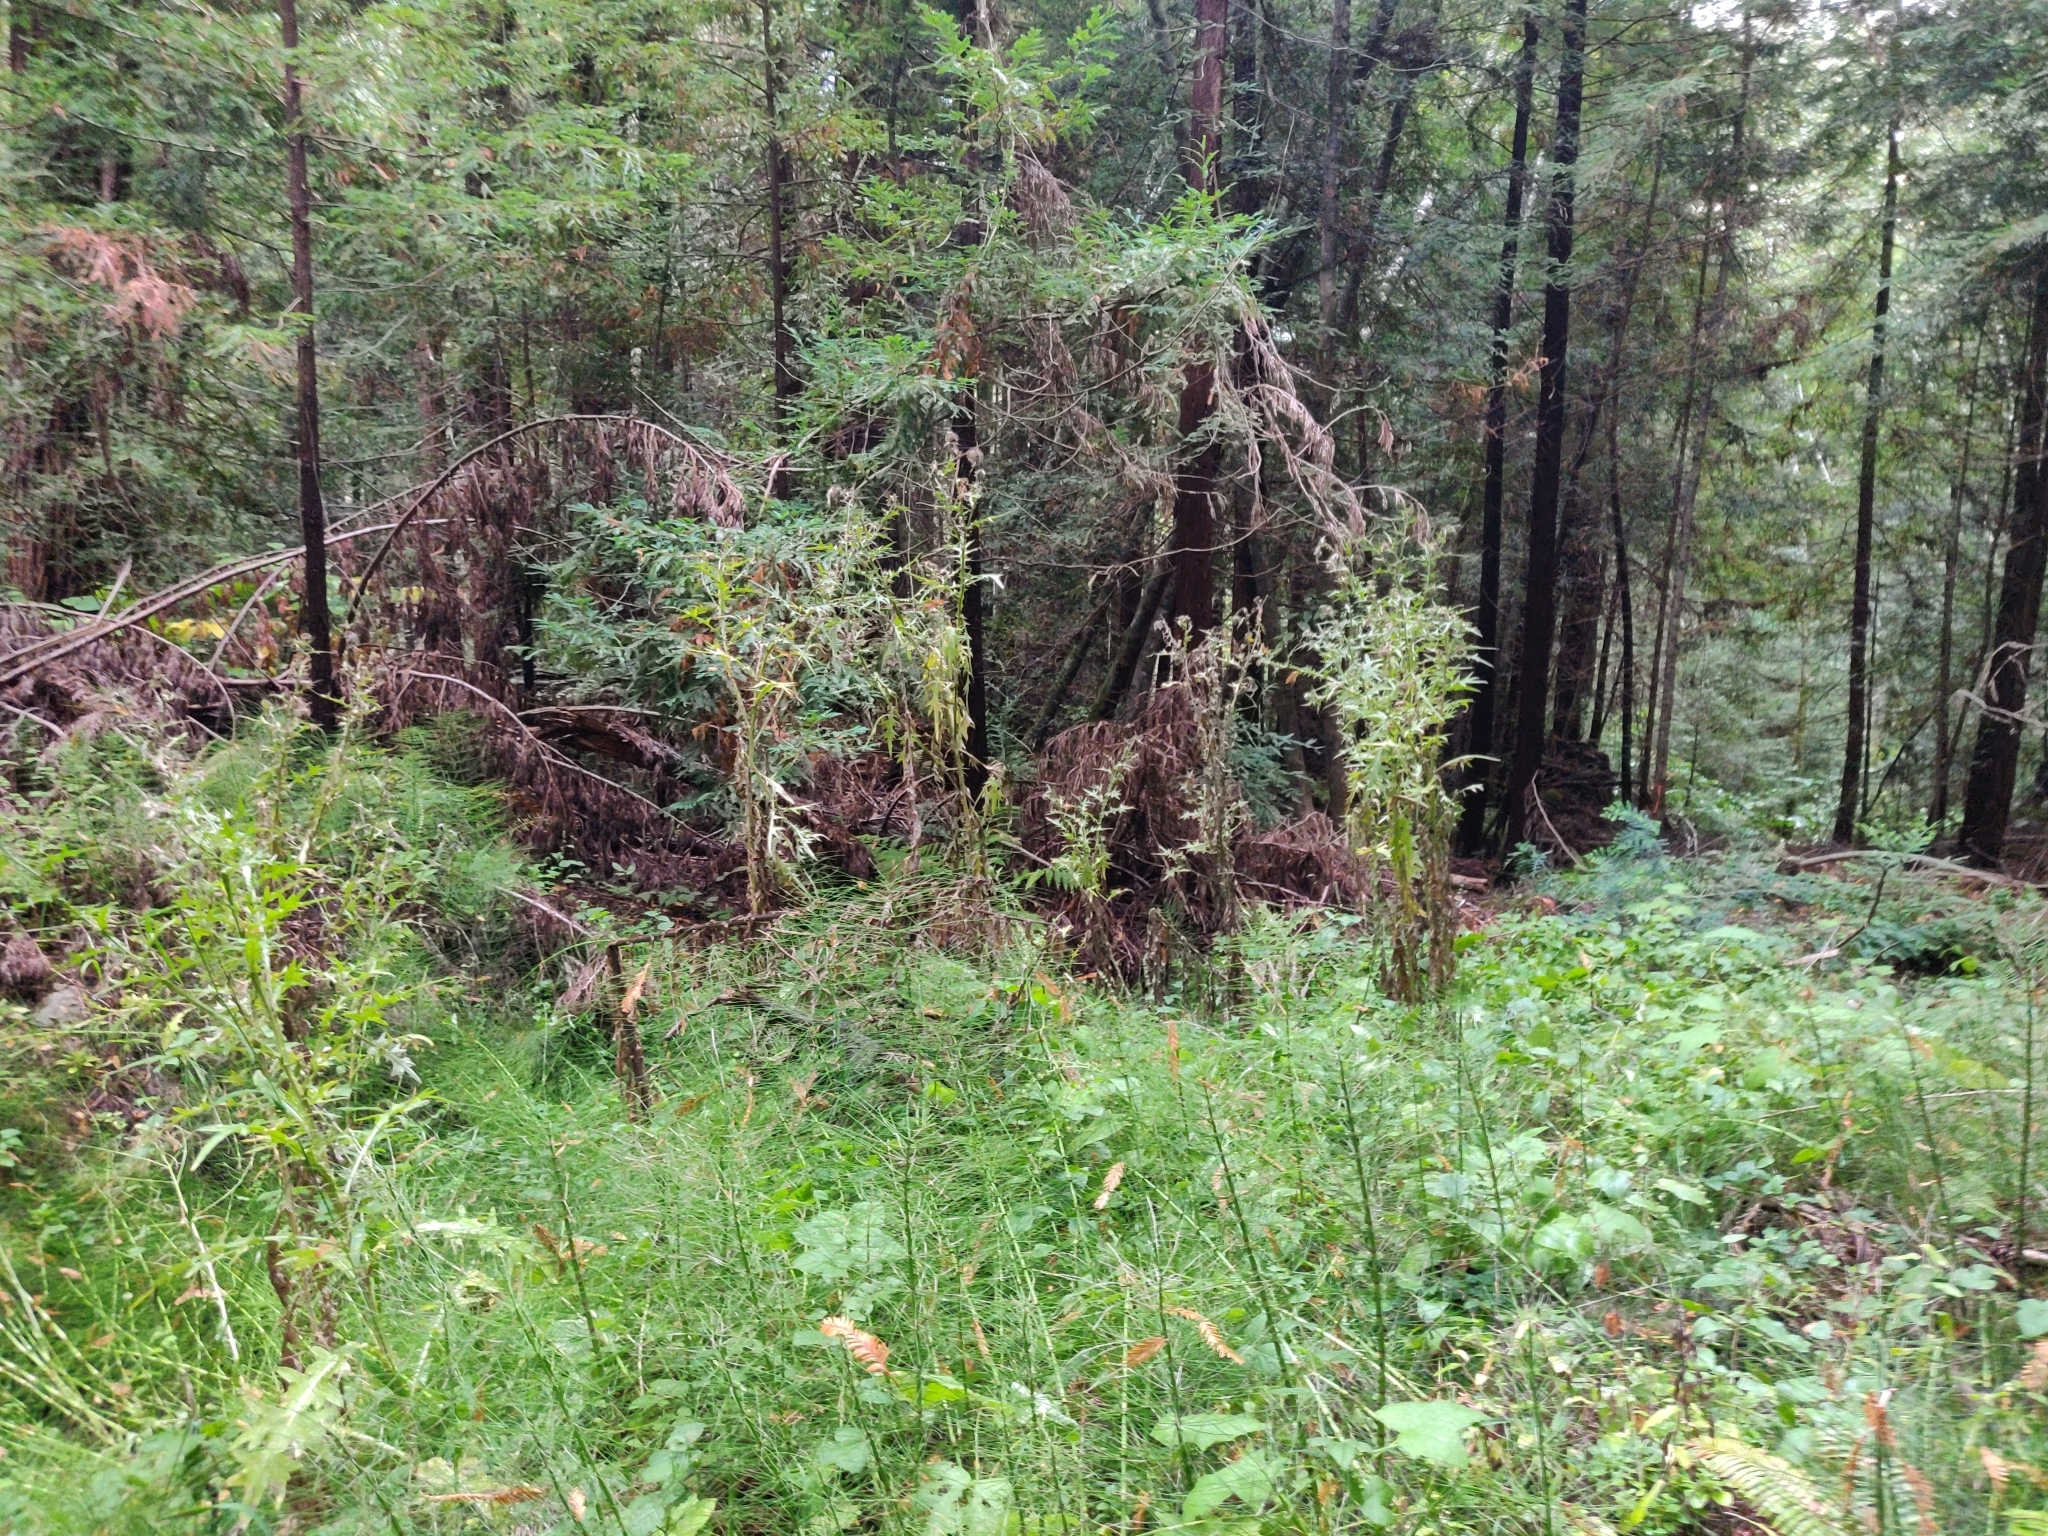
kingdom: Plantae
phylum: Tracheophyta
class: Magnoliopsida
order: Asterales
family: Asteraceae
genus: Cirsium
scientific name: Cirsium vulgare
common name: Bull thistle
